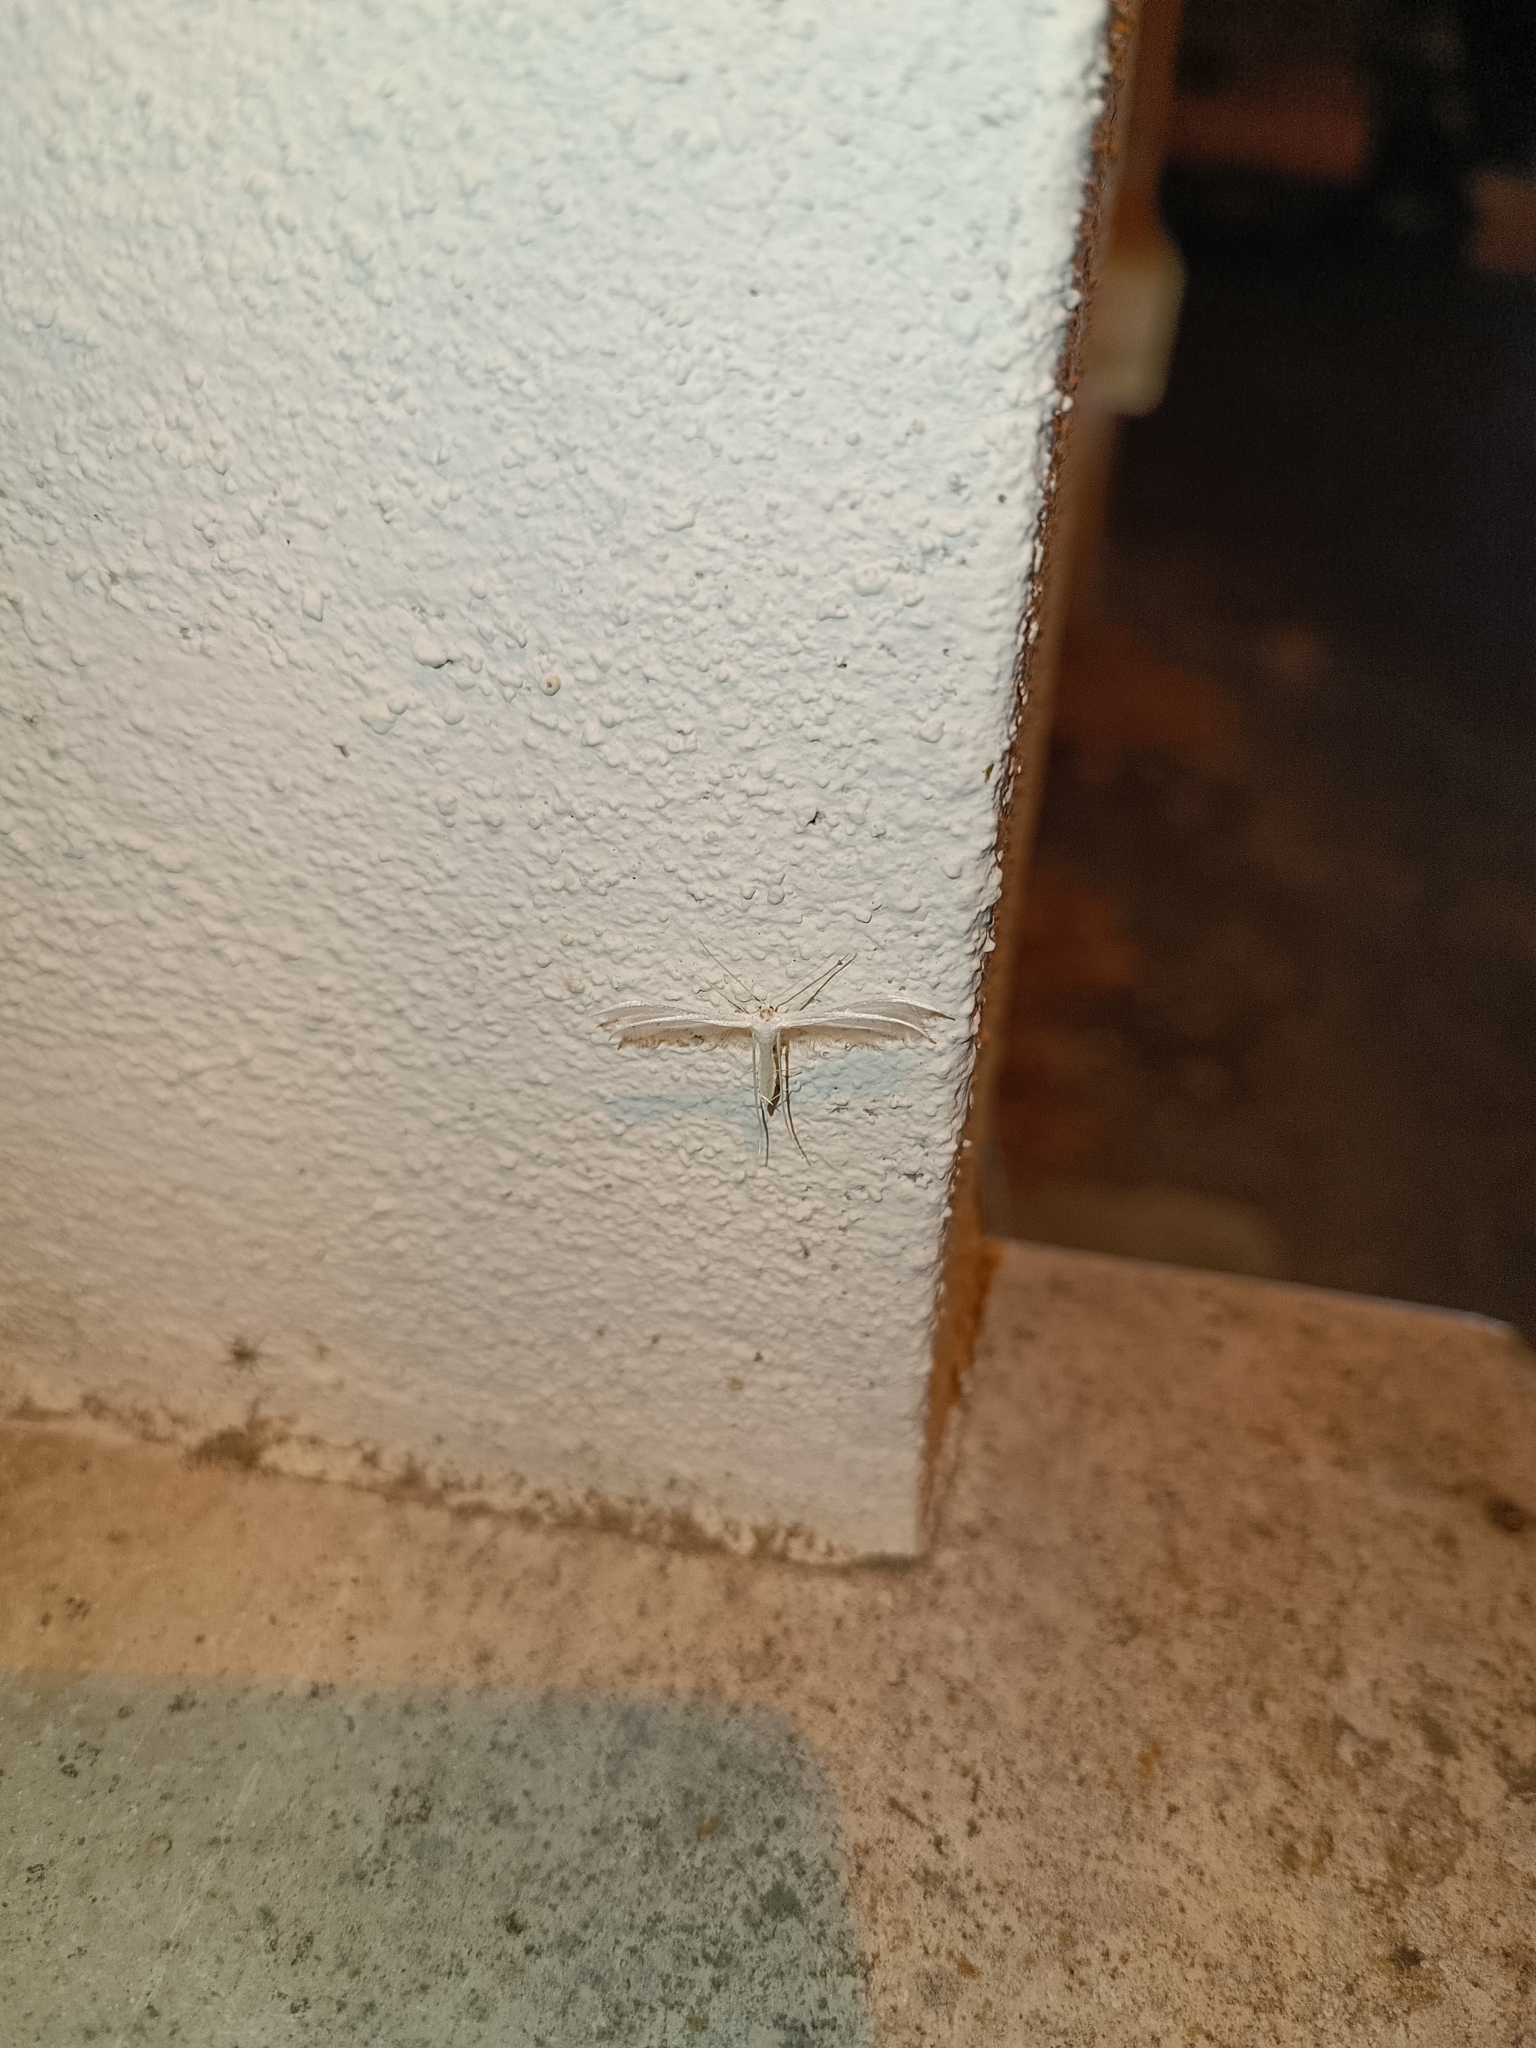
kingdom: Animalia
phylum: Arthropoda
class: Insecta
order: Lepidoptera
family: Pterophoridae
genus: Pterophorus
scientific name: Pterophorus pentadactyla
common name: White plume moth
